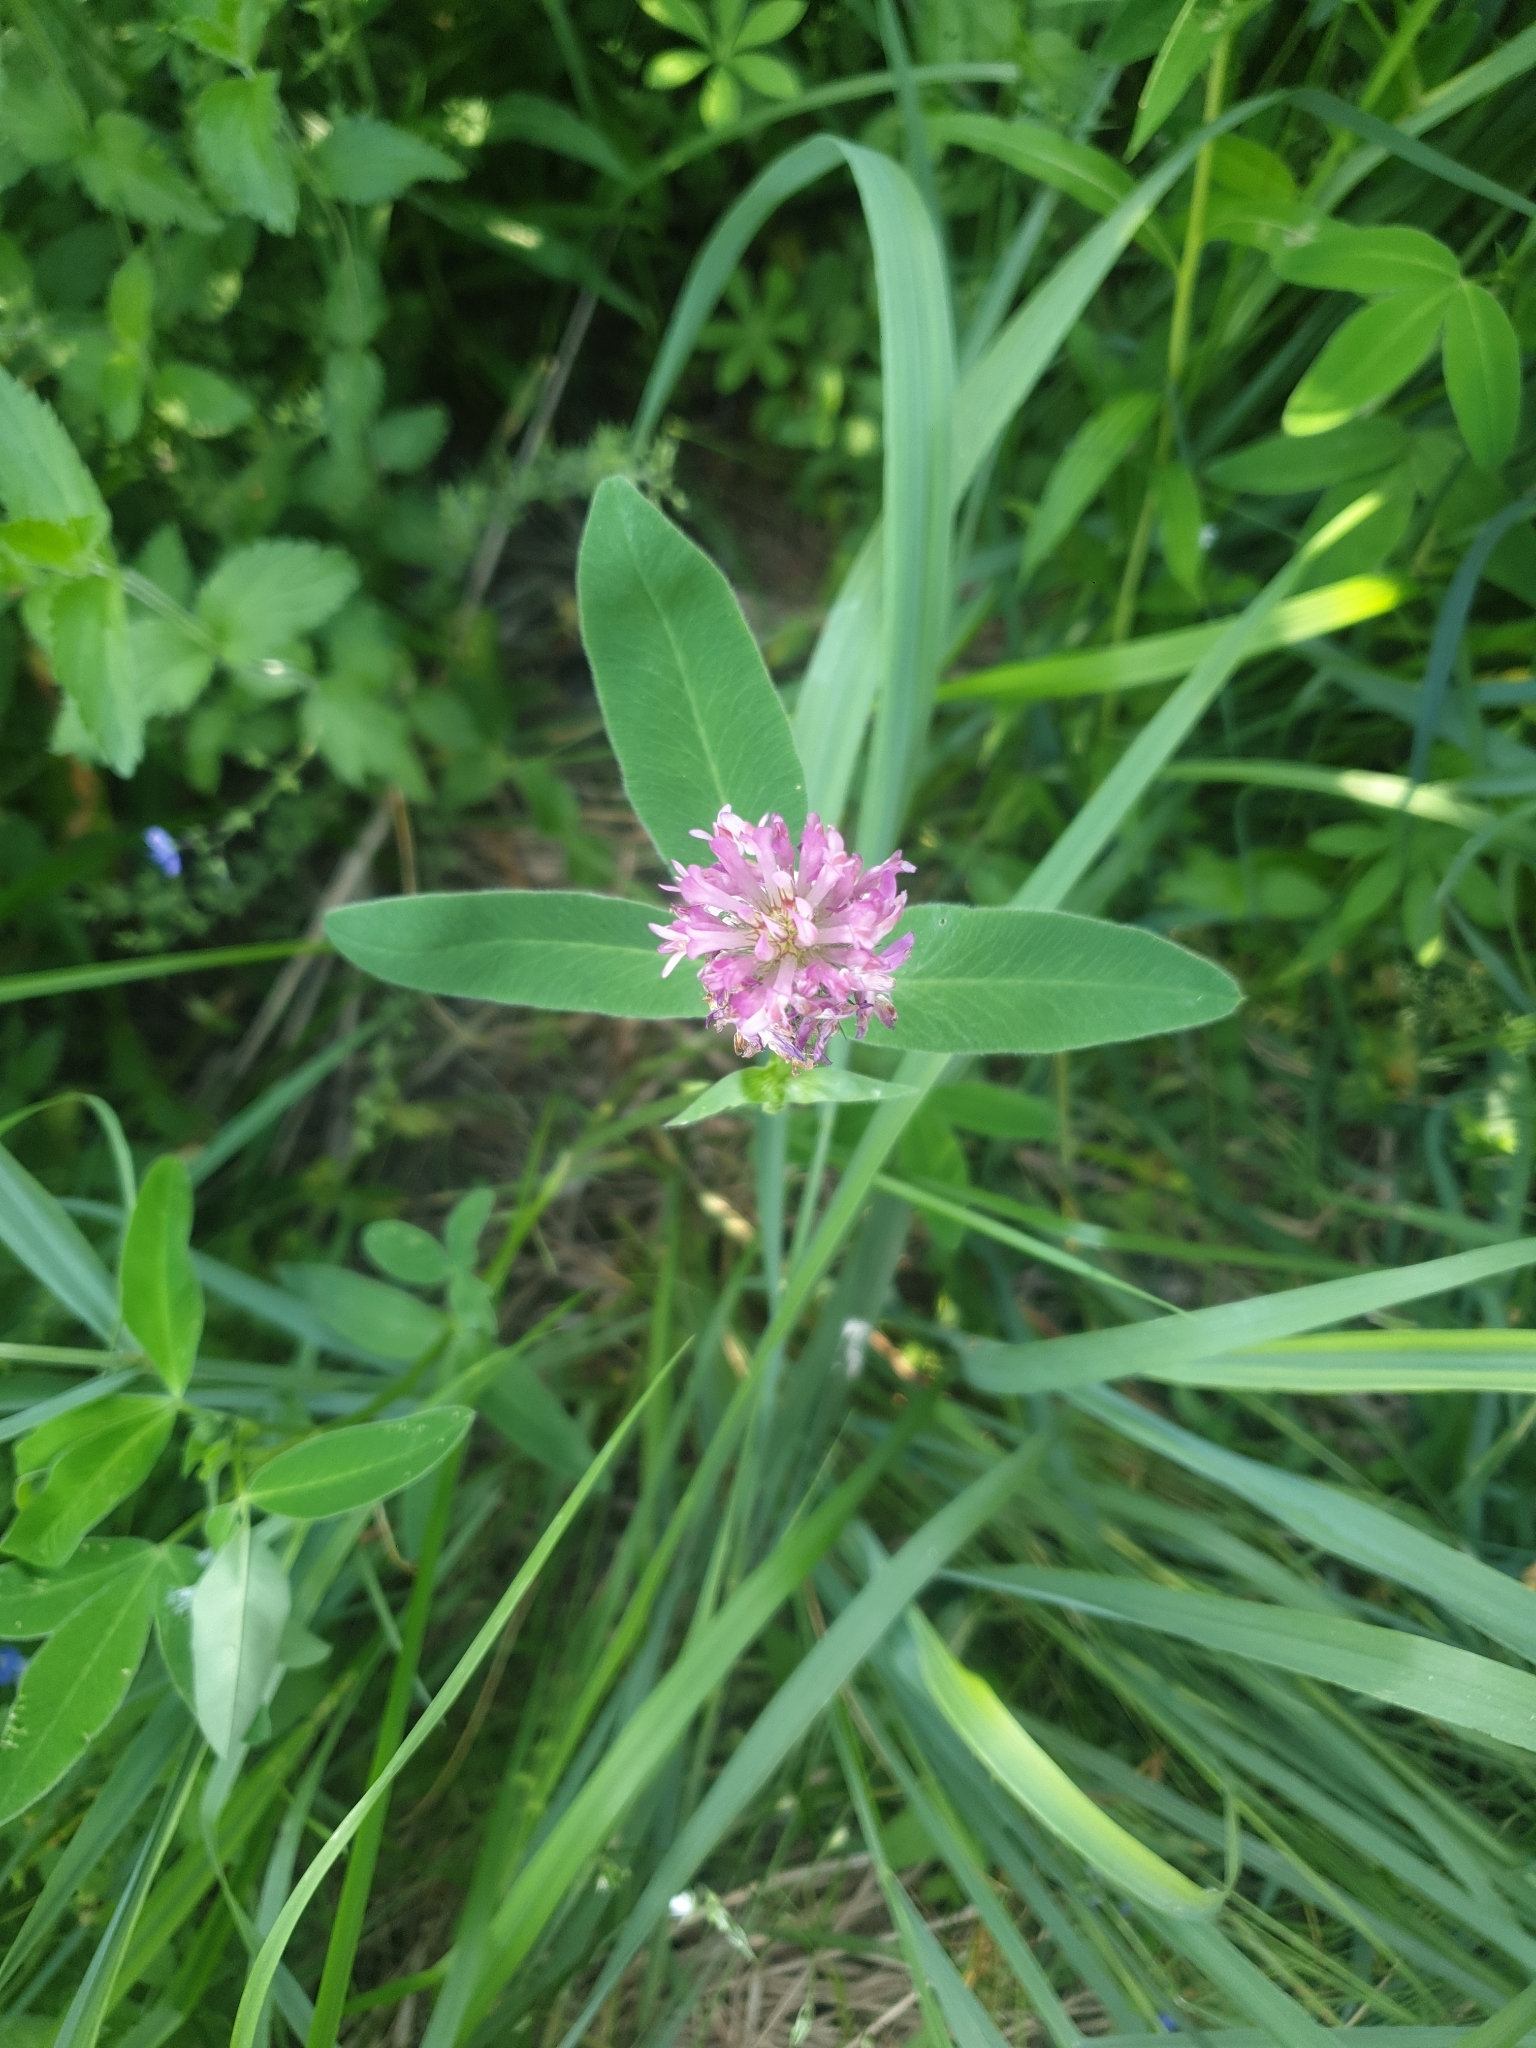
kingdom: Plantae
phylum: Tracheophyta
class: Magnoliopsida
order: Fabales
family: Fabaceae
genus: Trifolium
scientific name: Trifolium medium
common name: Zigzag clover
